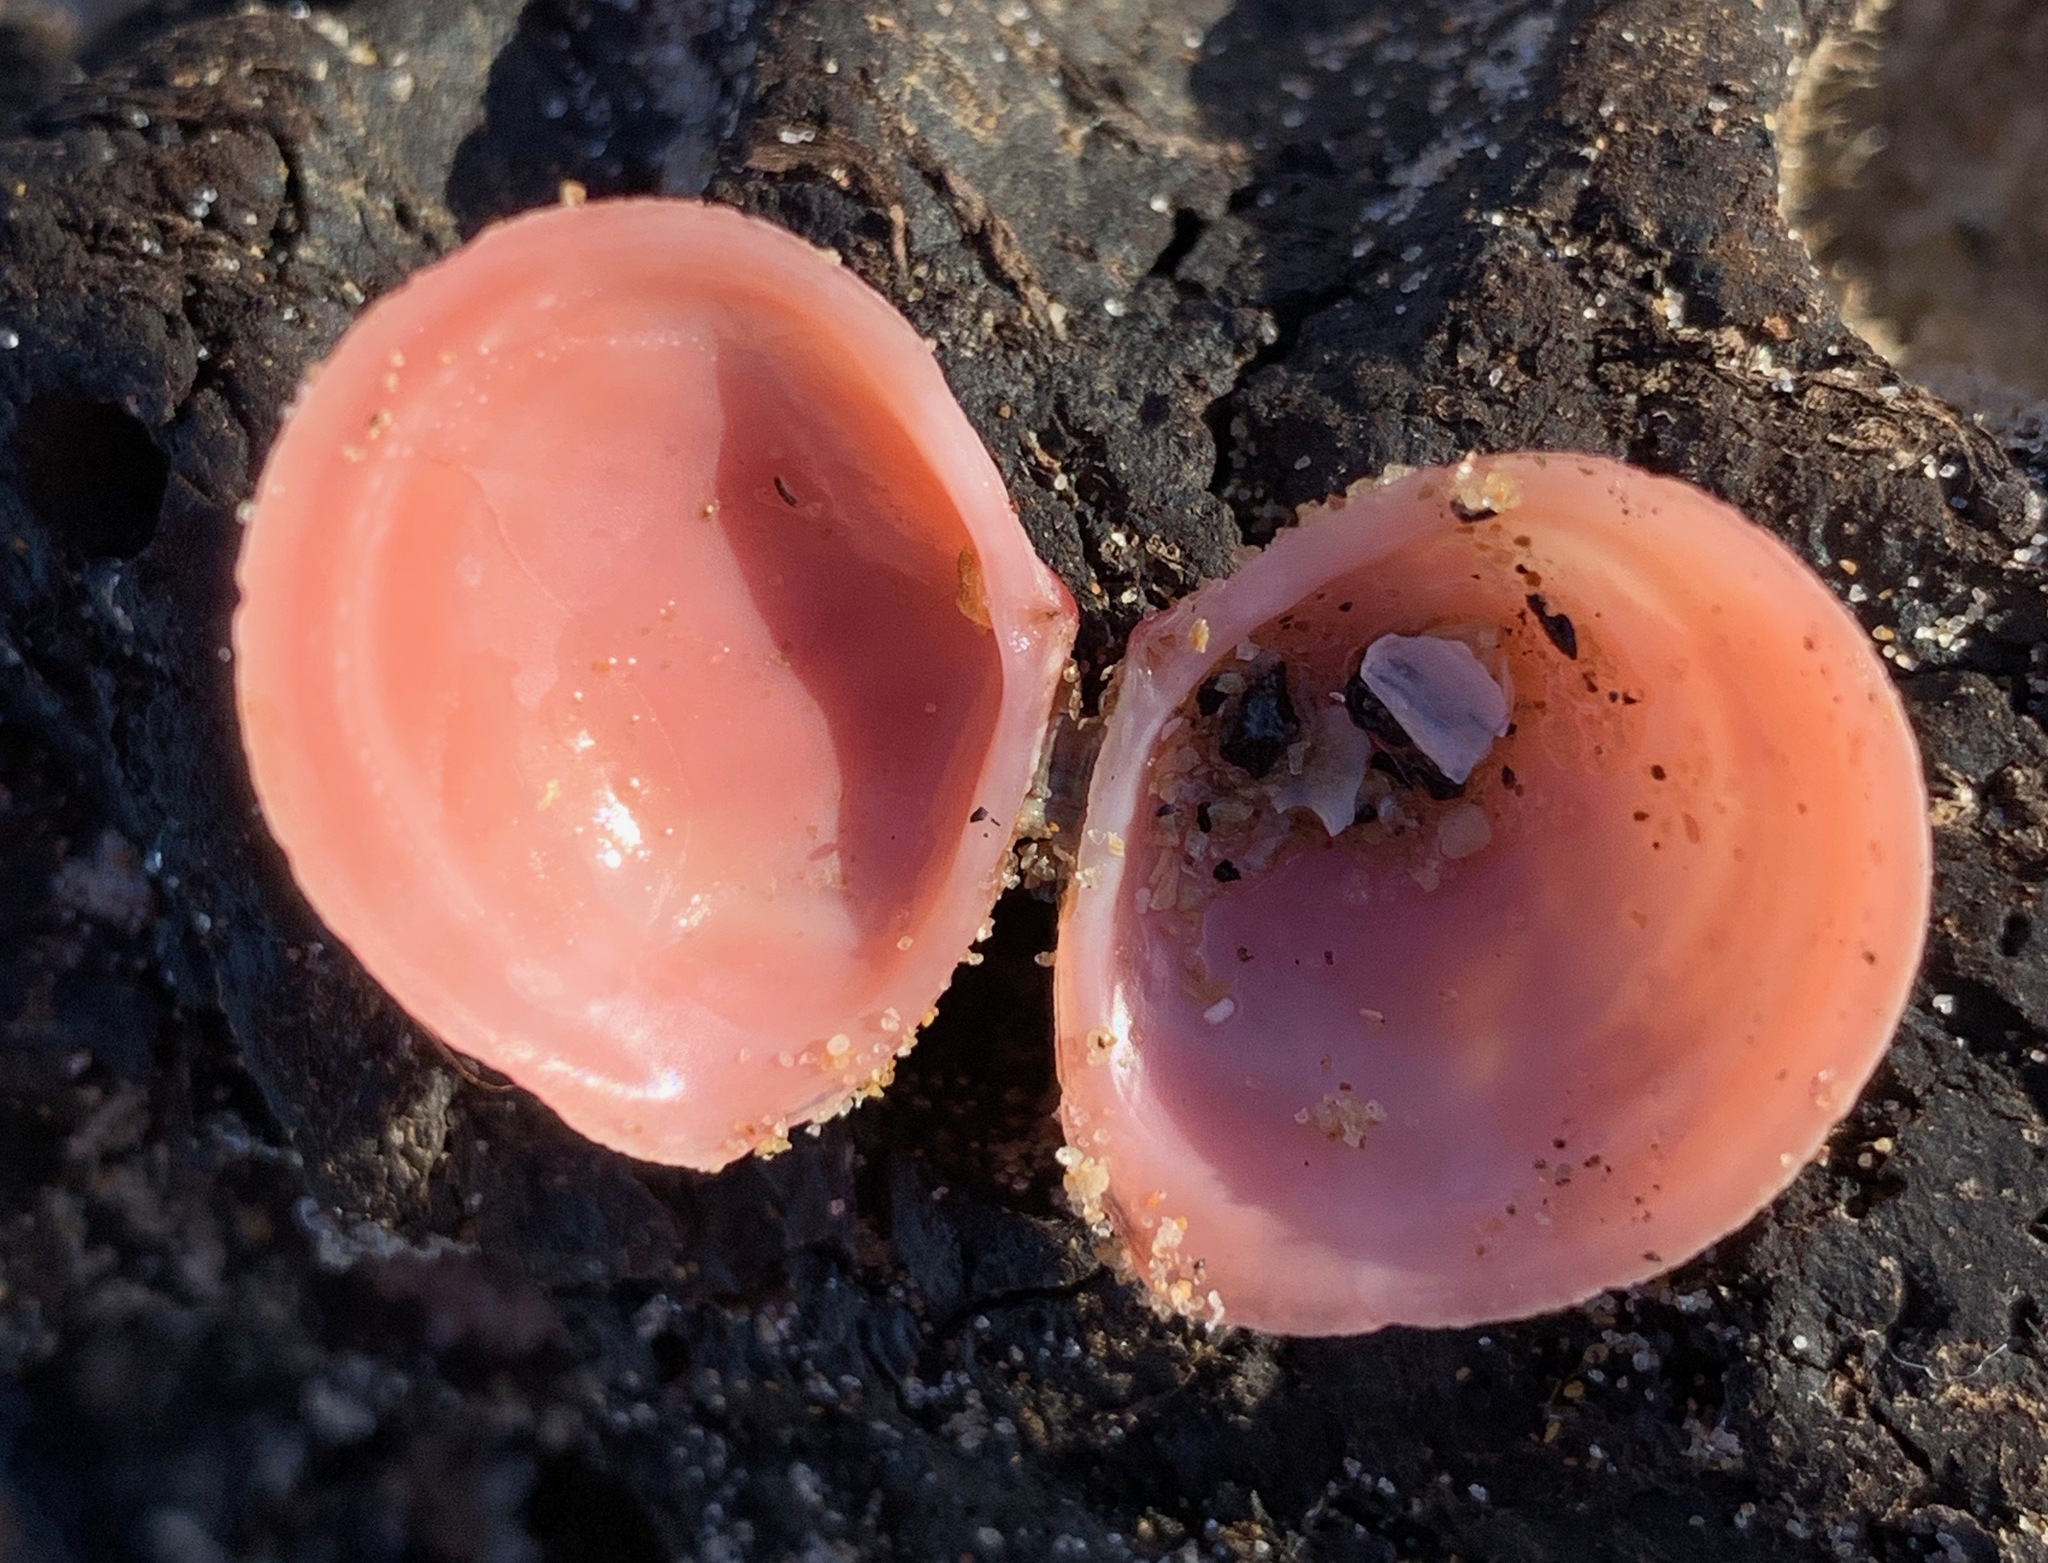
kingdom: Animalia
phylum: Mollusca
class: Bivalvia
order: Cardiida
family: Tellinidae
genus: Macoma
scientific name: Macoma balthica
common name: Baltic tellin
